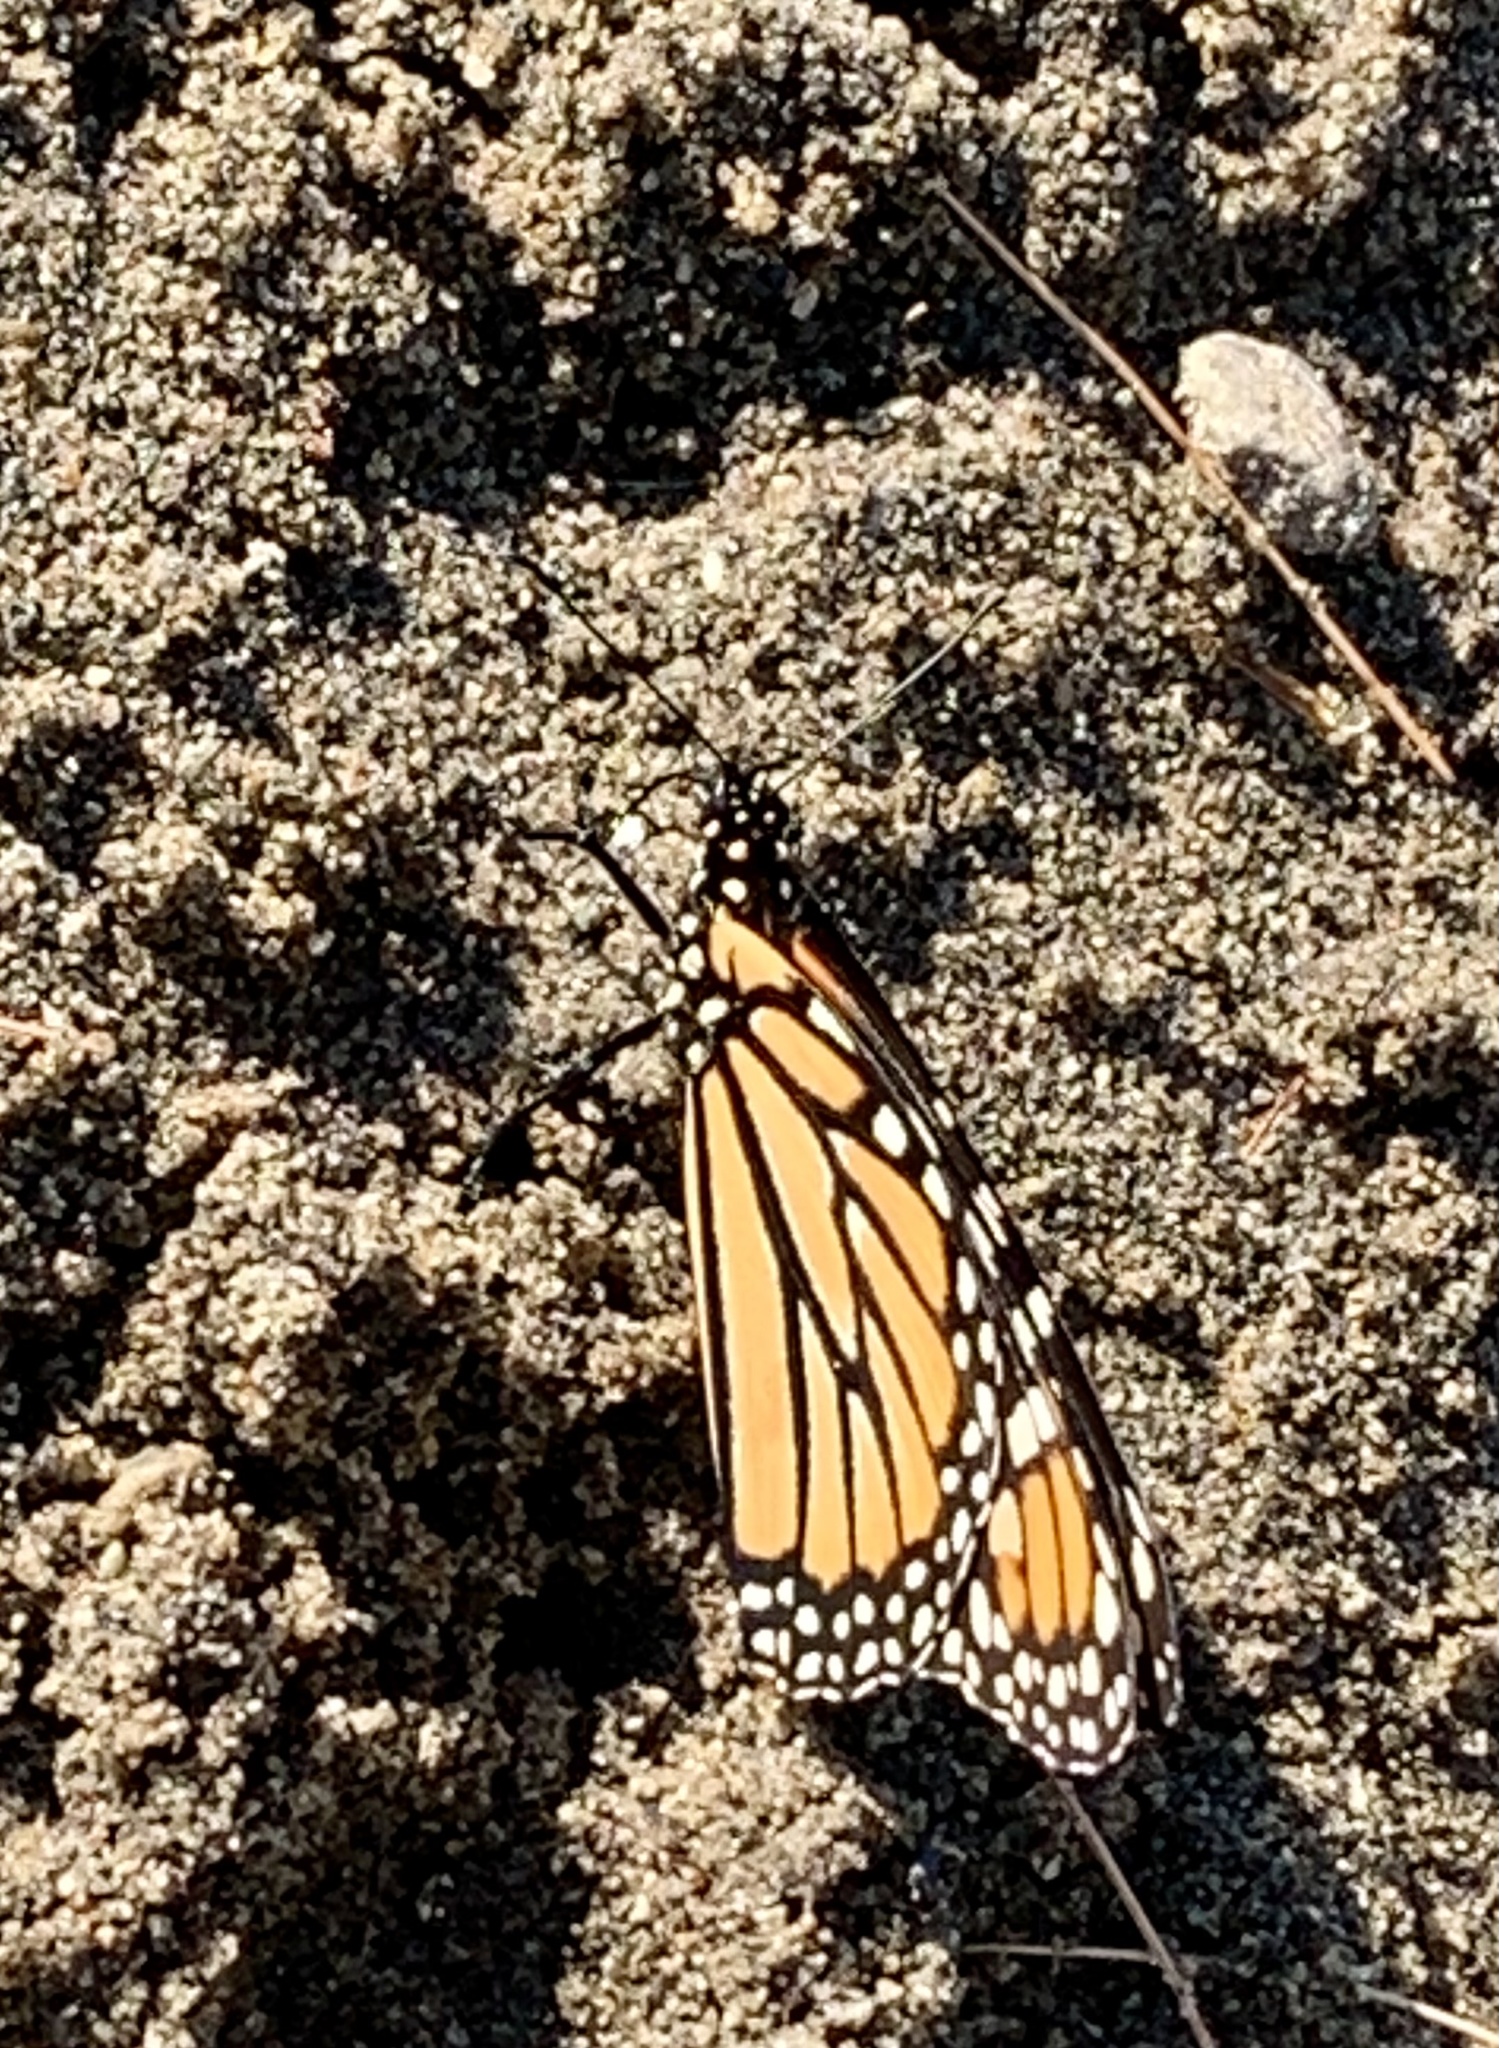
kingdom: Animalia
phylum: Arthropoda
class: Insecta
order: Lepidoptera
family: Nymphalidae
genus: Danaus
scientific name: Danaus plexippus
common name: Monarch
